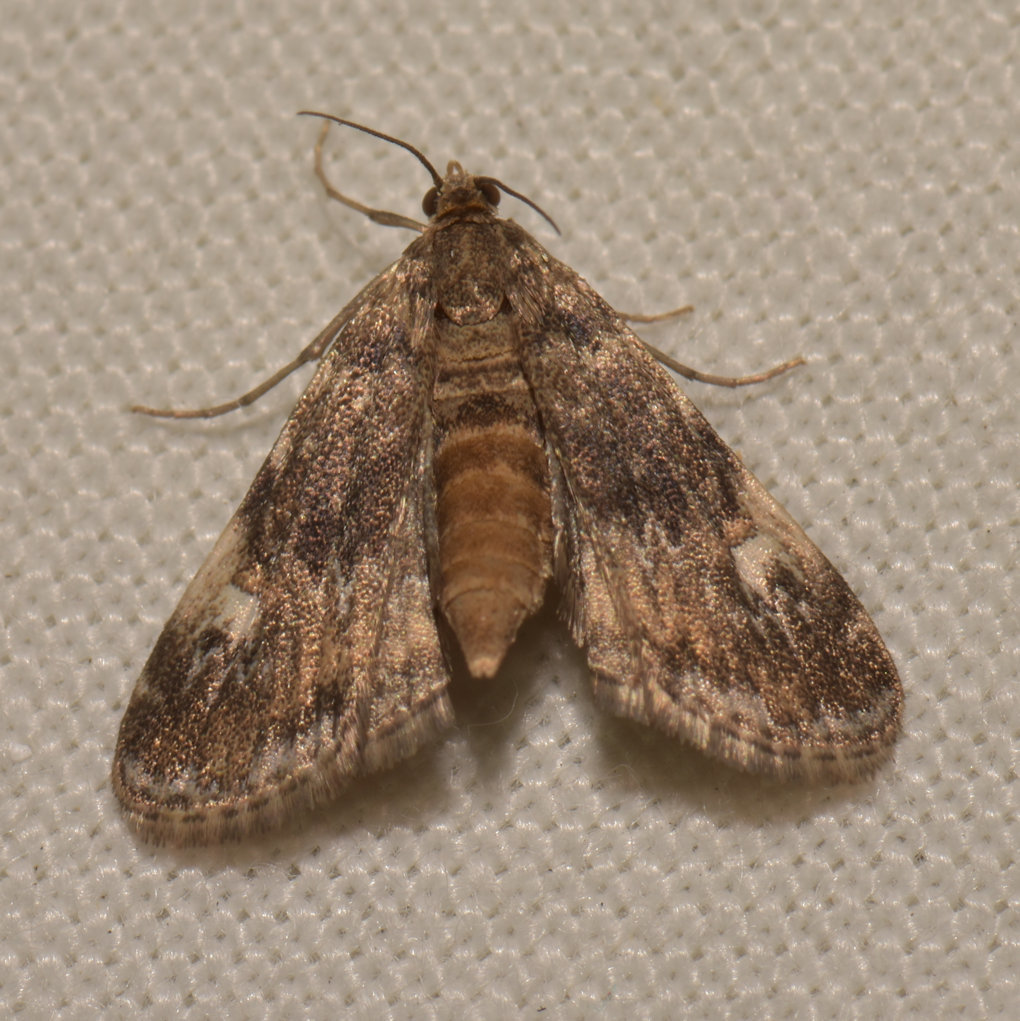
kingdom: Animalia
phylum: Arthropoda
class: Insecta
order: Lepidoptera
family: Crambidae
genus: Elophila
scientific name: Elophila obliteralis
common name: Waterlily leafcutter moth
